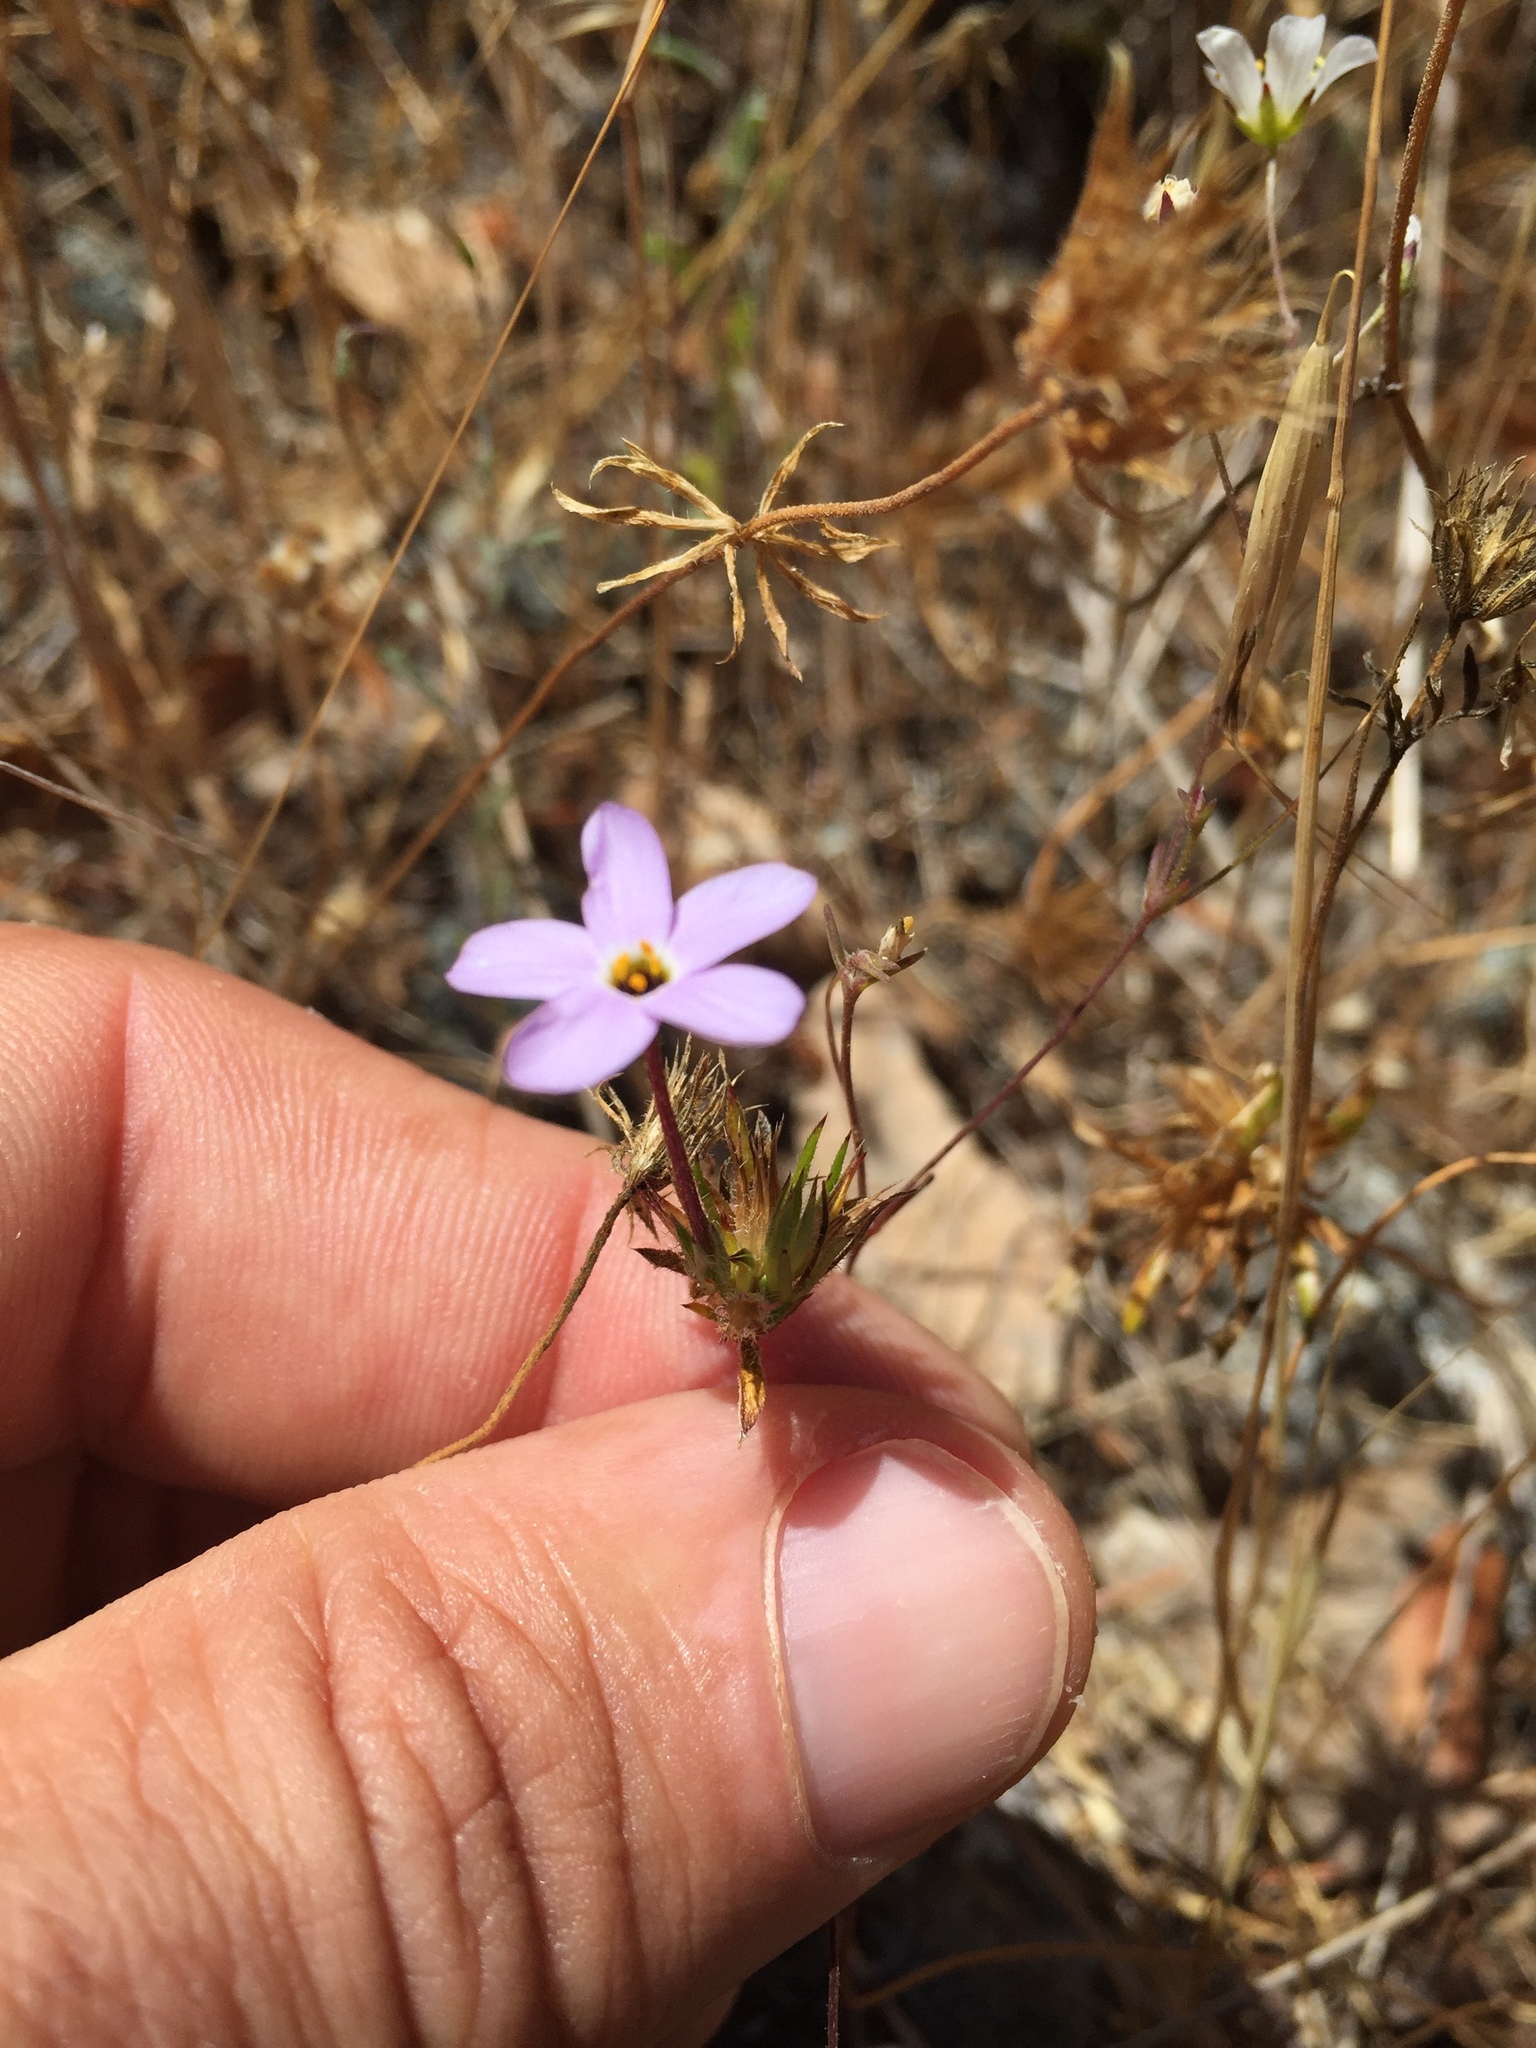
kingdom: Plantae
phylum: Tracheophyta
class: Magnoliopsida
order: Ericales
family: Polemoniaceae
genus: Leptosiphon
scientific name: Leptosiphon androsaceus
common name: False babystars
